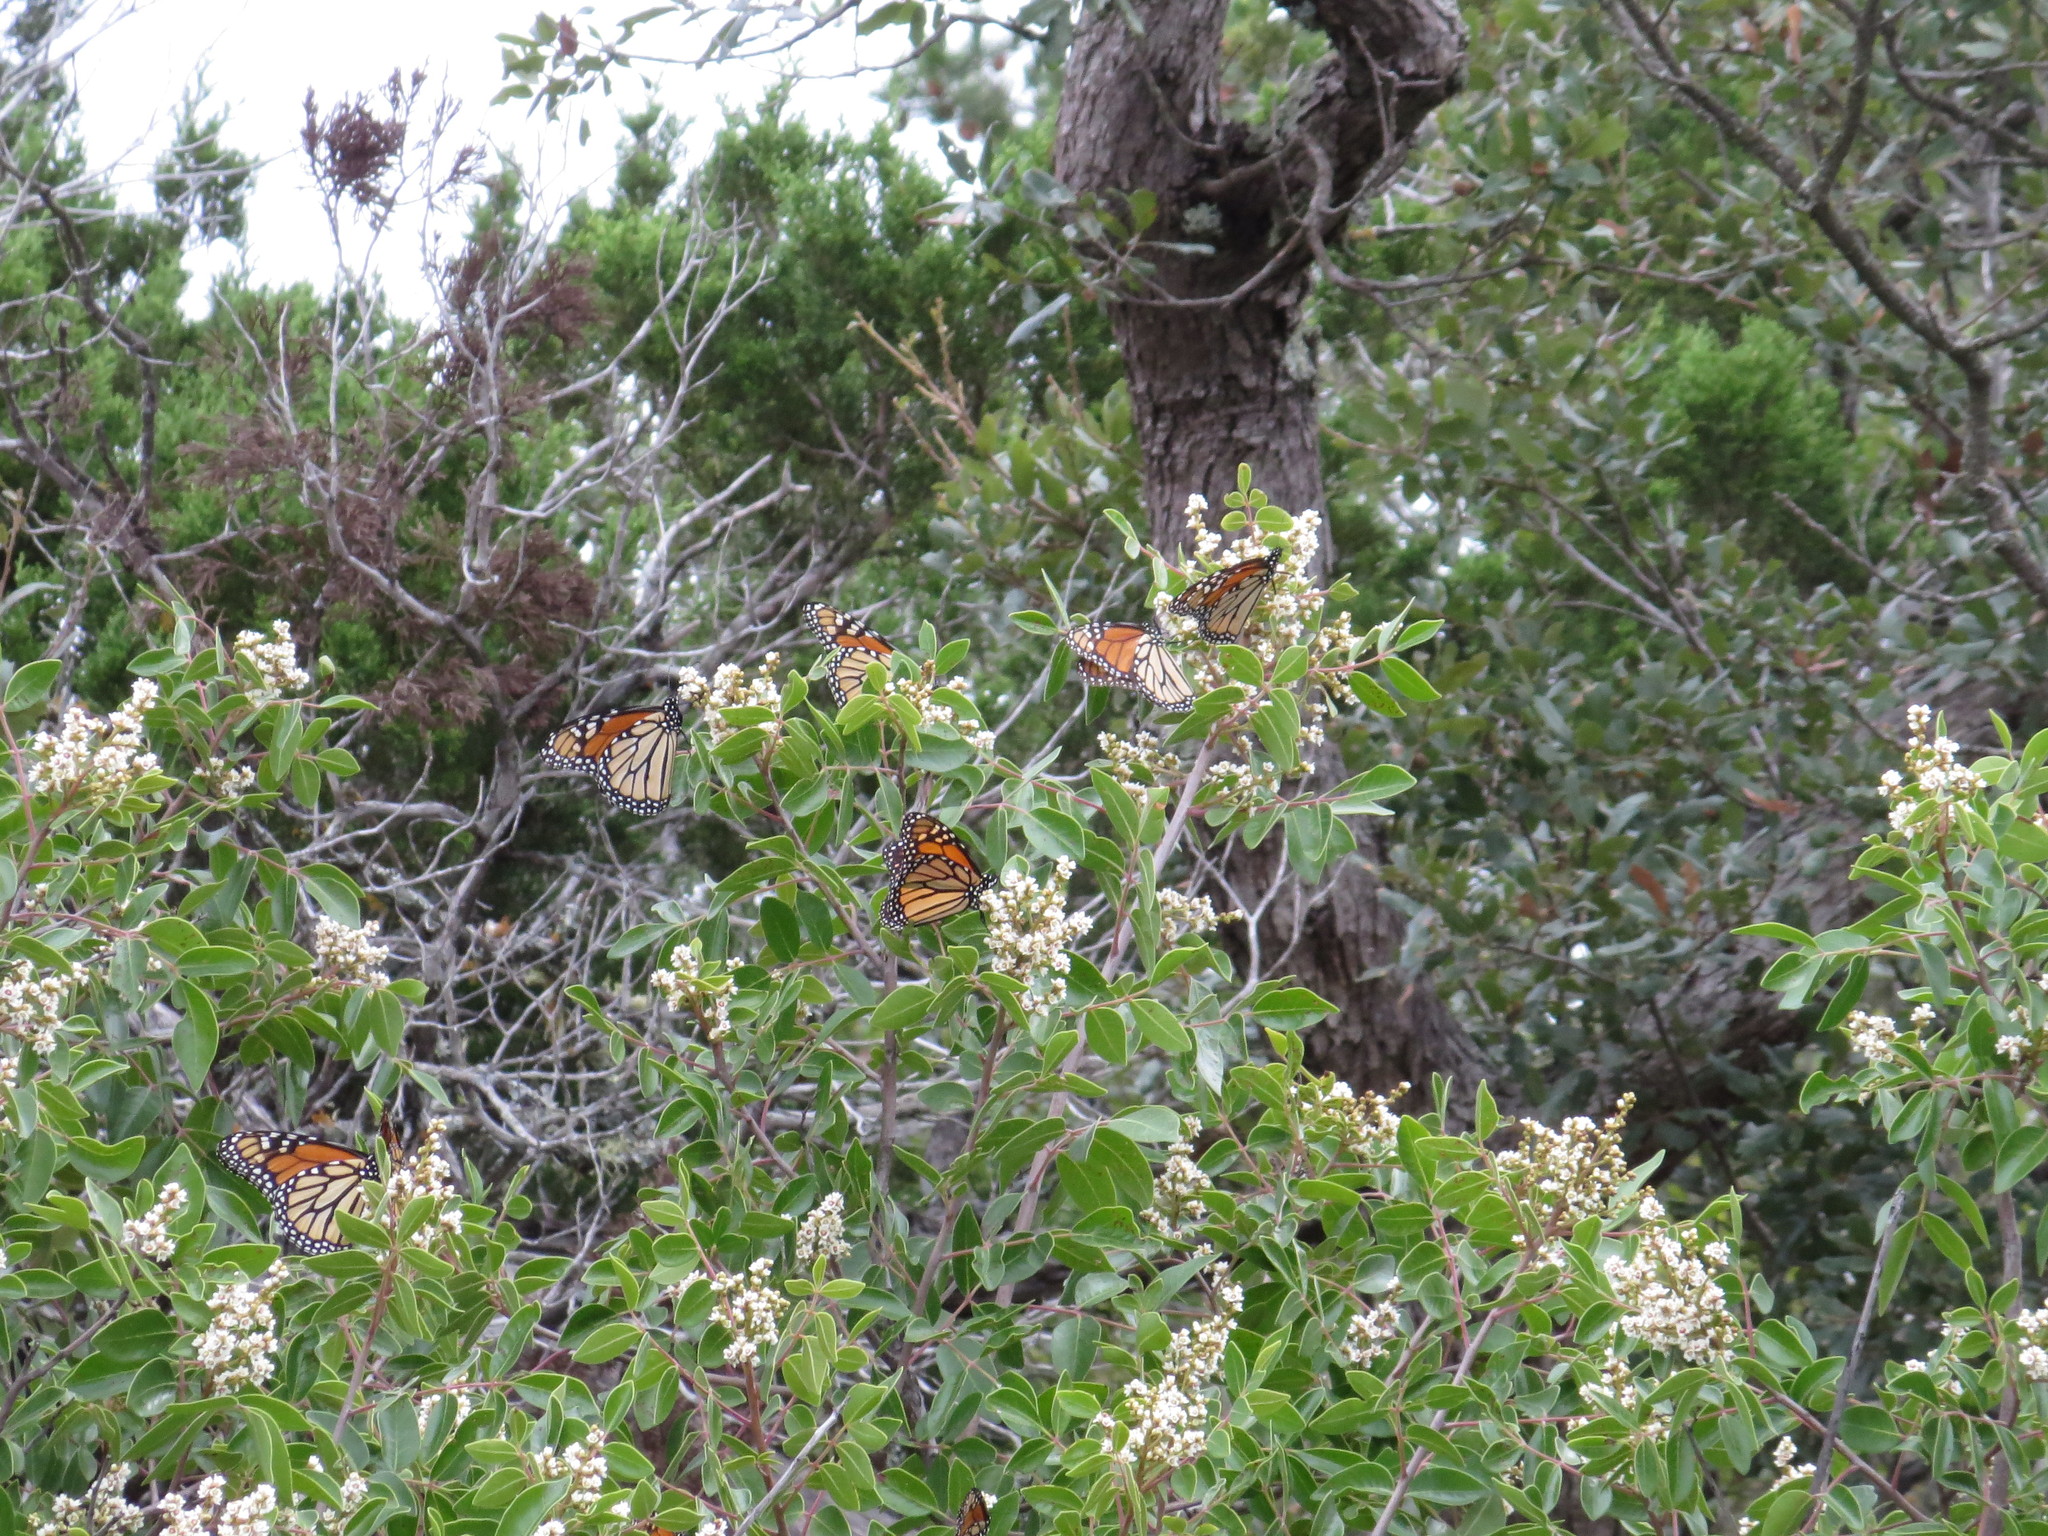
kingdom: Animalia
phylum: Arthropoda
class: Insecta
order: Lepidoptera
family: Nymphalidae
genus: Danaus
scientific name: Danaus plexippus
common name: Monarch
